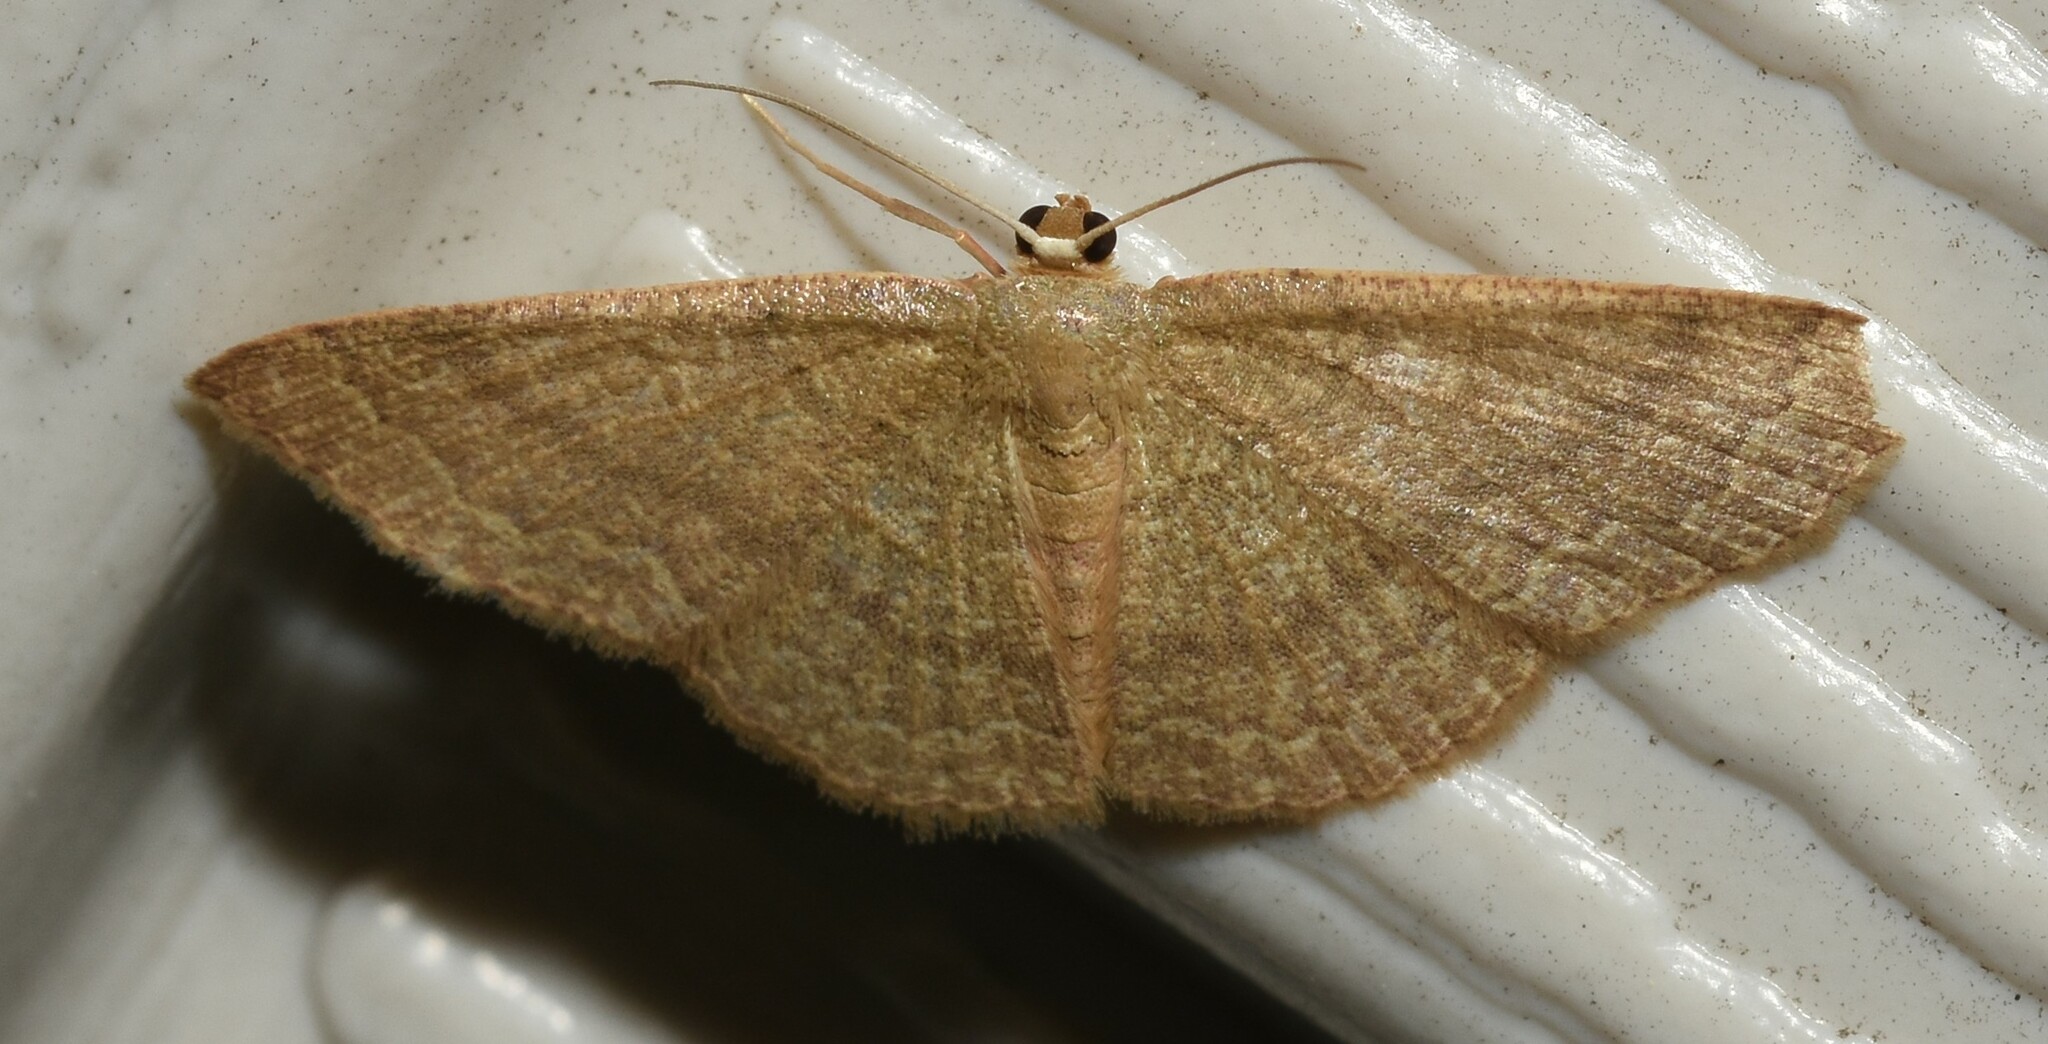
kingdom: Animalia
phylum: Arthropoda
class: Insecta
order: Lepidoptera
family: Geometridae
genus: Pleuroprucha
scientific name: Pleuroprucha insulsaria
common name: Common tan wave
